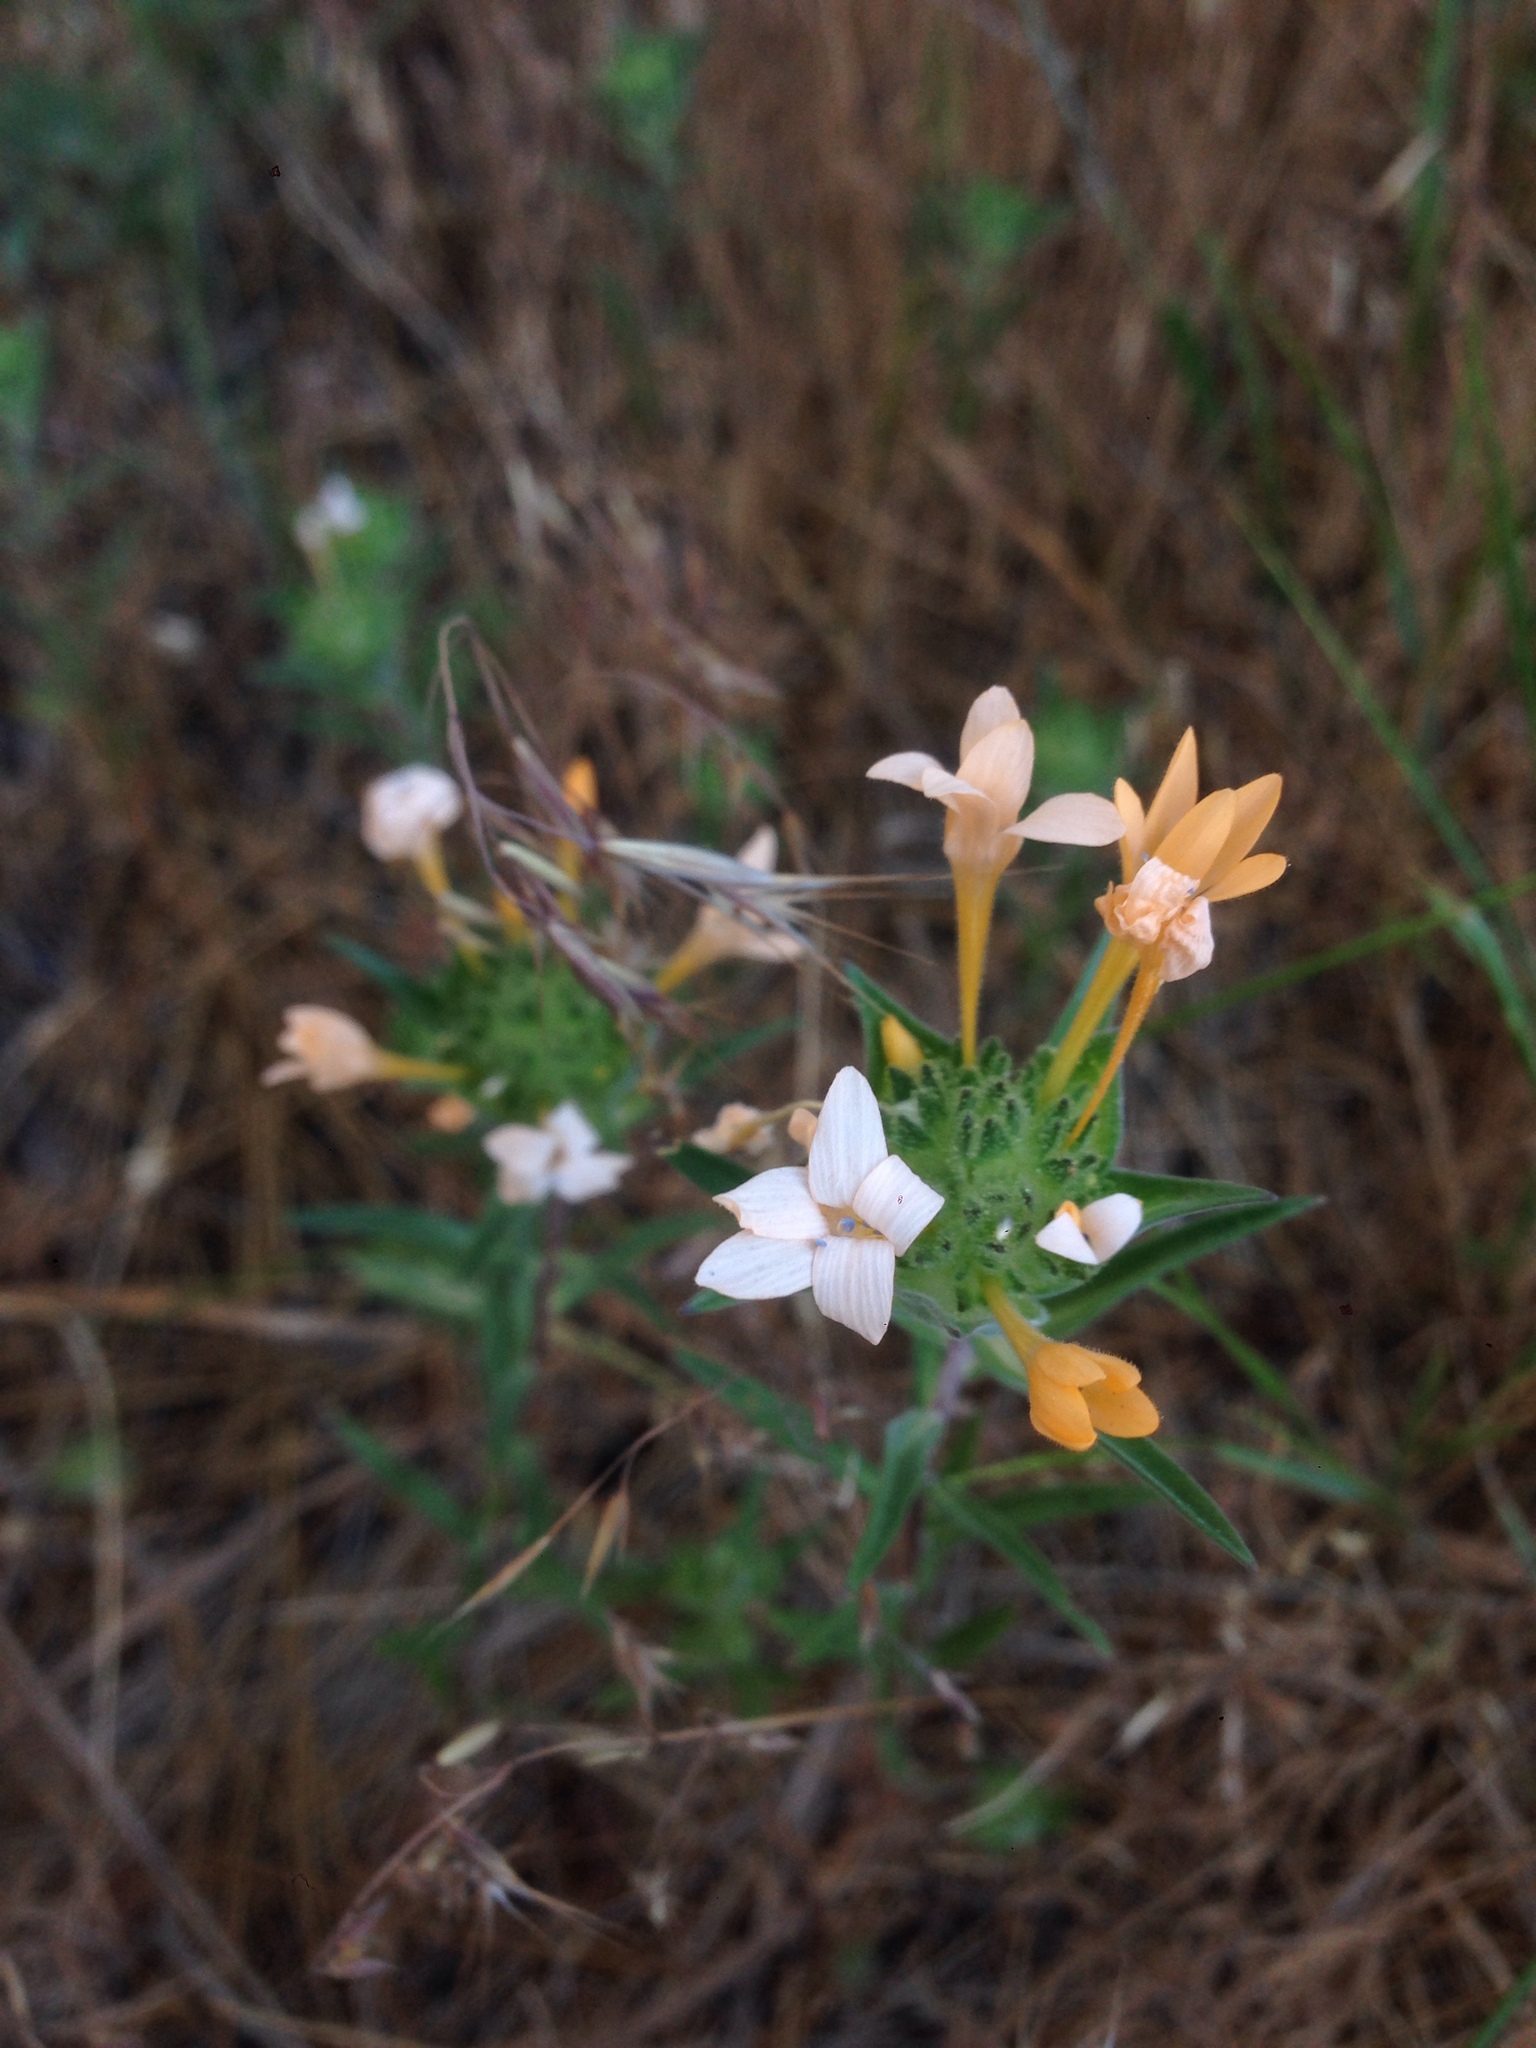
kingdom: Plantae
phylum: Tracheophyta
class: Magnoliopsida
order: Ericales
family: Polemoniaceae
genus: Collomia
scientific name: Collomia grandiflora
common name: California strawflower
